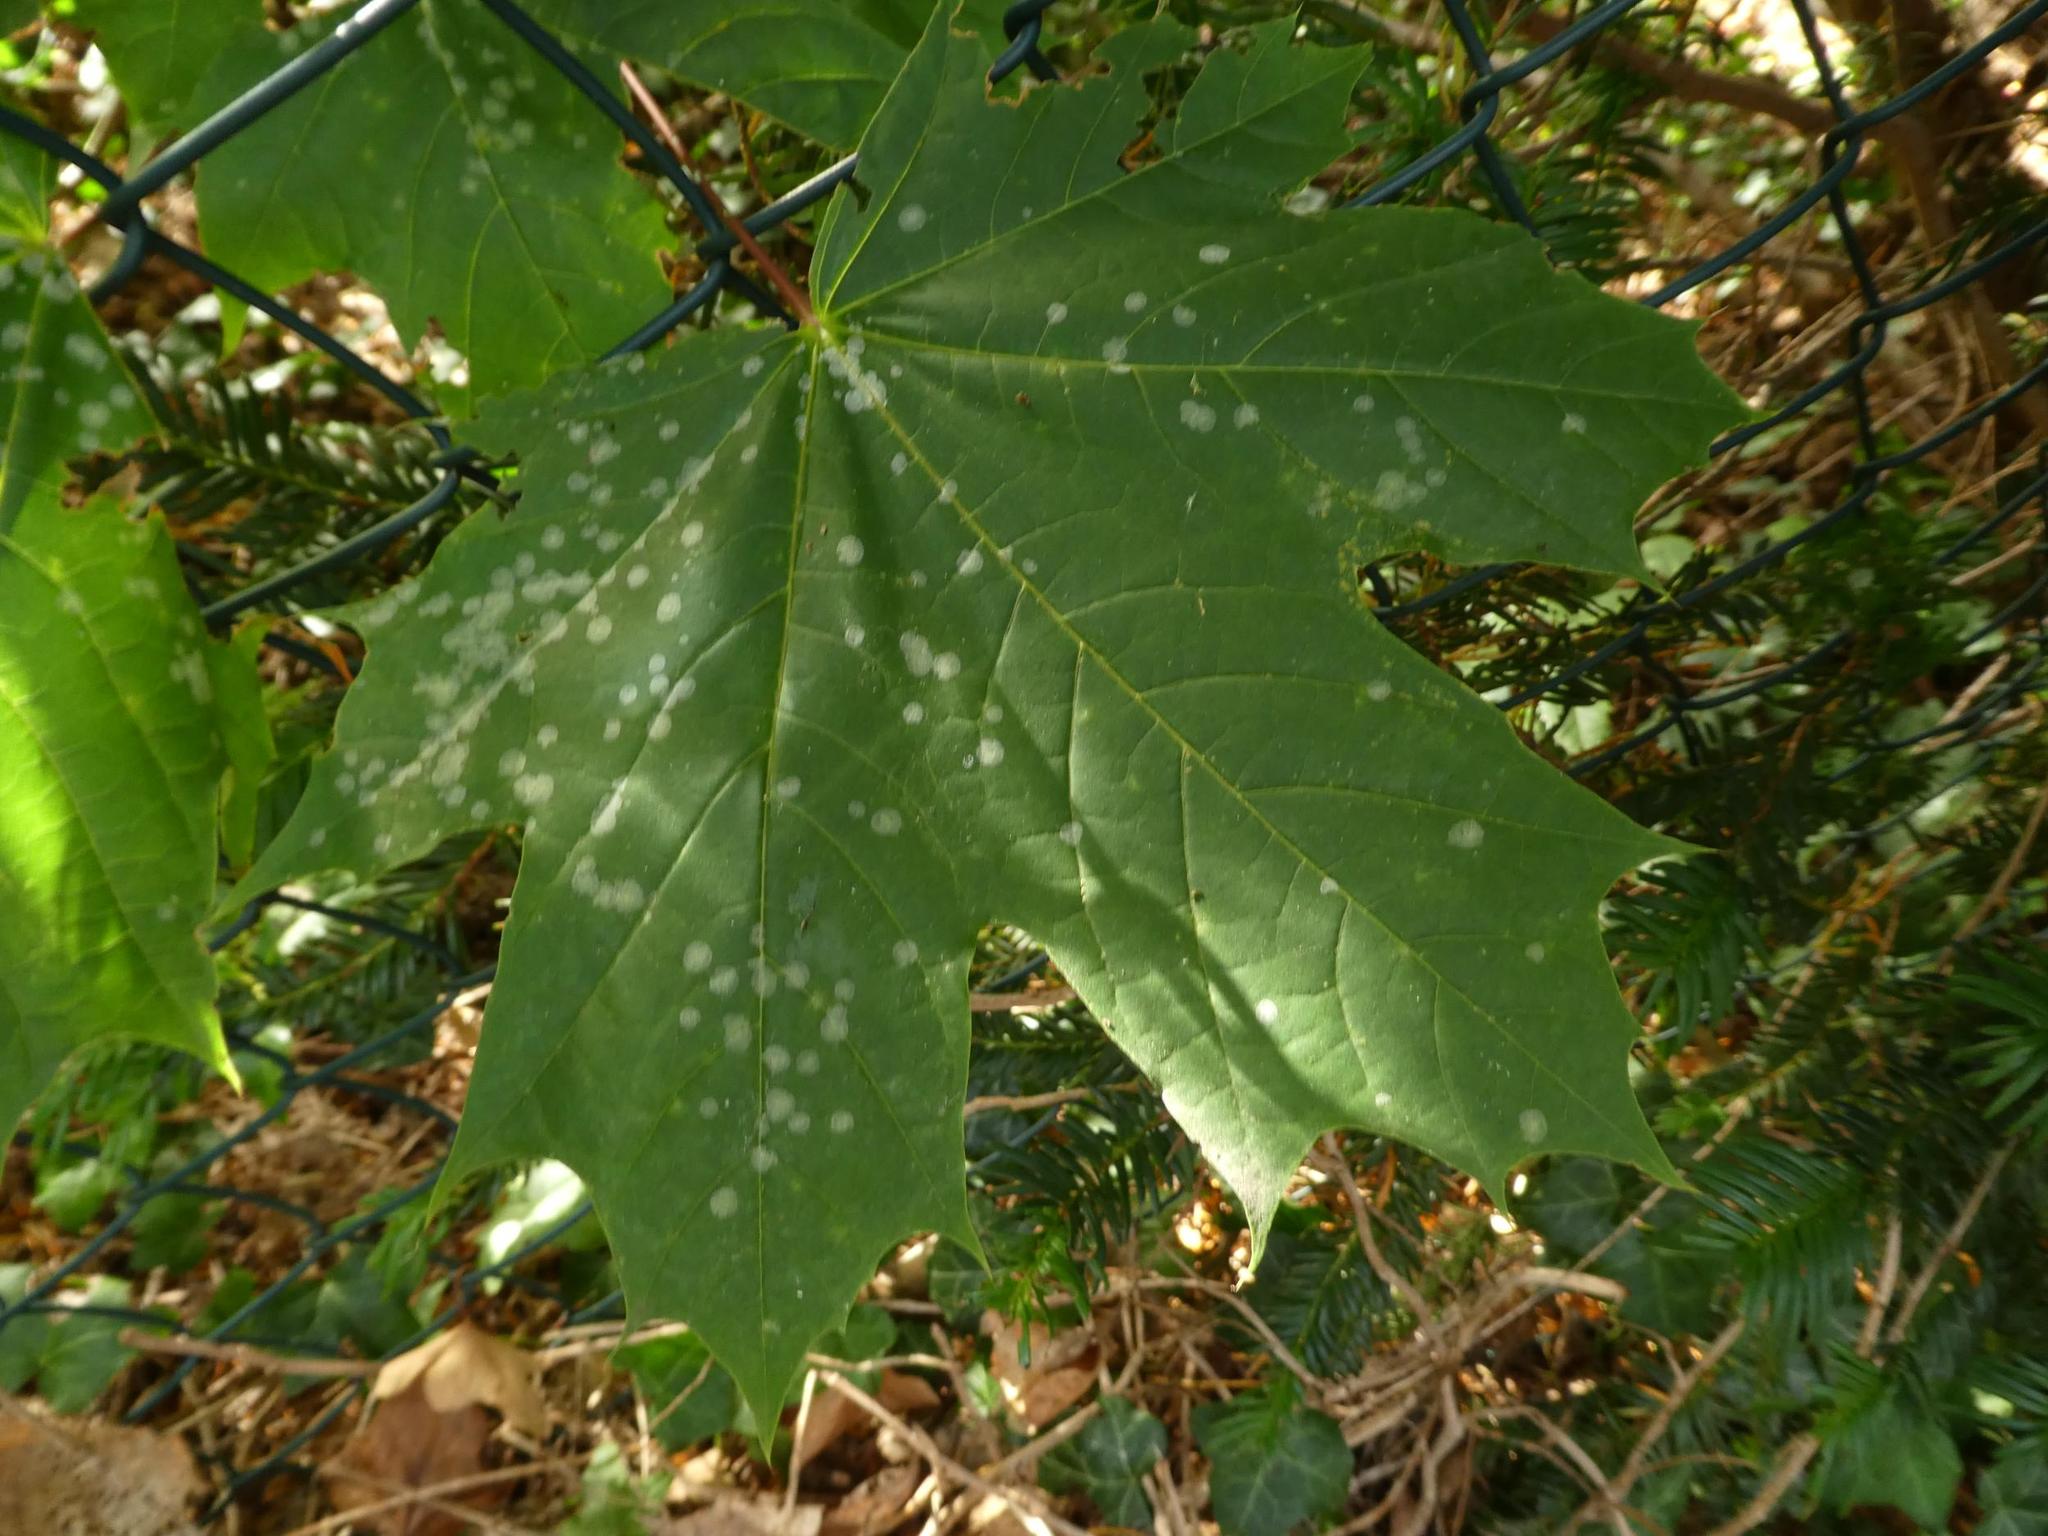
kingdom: Fungi
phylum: Ascomycota
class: Leotiomycetes
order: Helotiales
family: Erysiphaceae
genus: Sawadaea
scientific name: Sawadaea tulasnei
